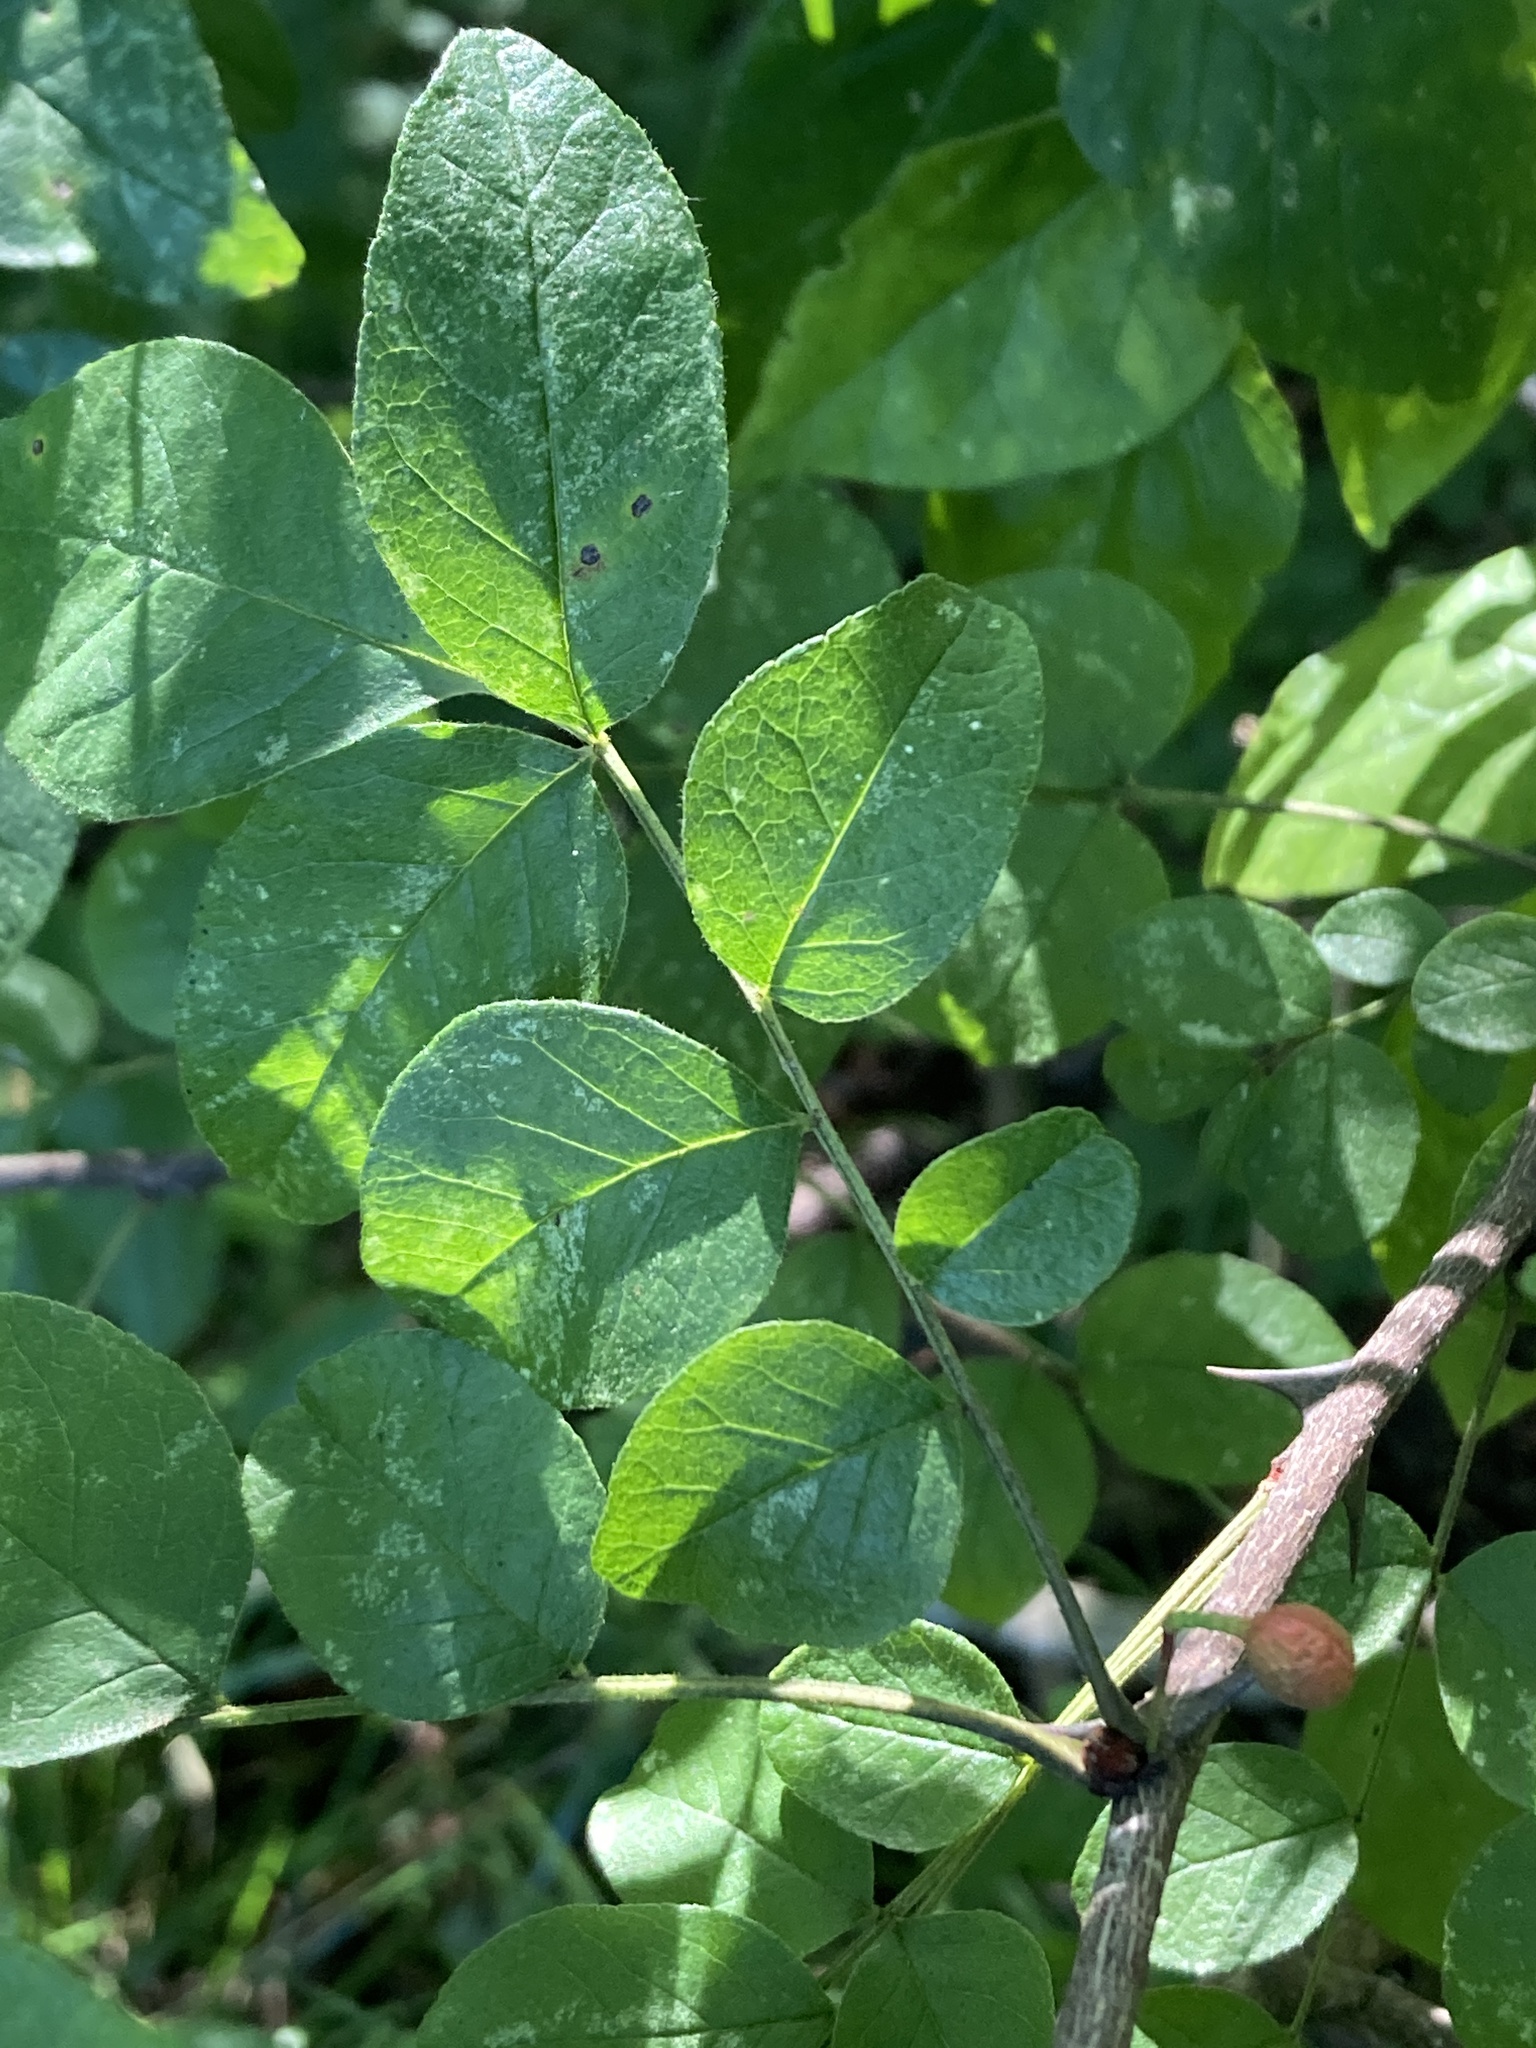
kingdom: Plantae
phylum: Tracheophyta
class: Magnoliopsida
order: Sapindales
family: Rutaceae
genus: Zanthoxylum
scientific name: Zanthoxylum americanum
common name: Northern prickly-ash
